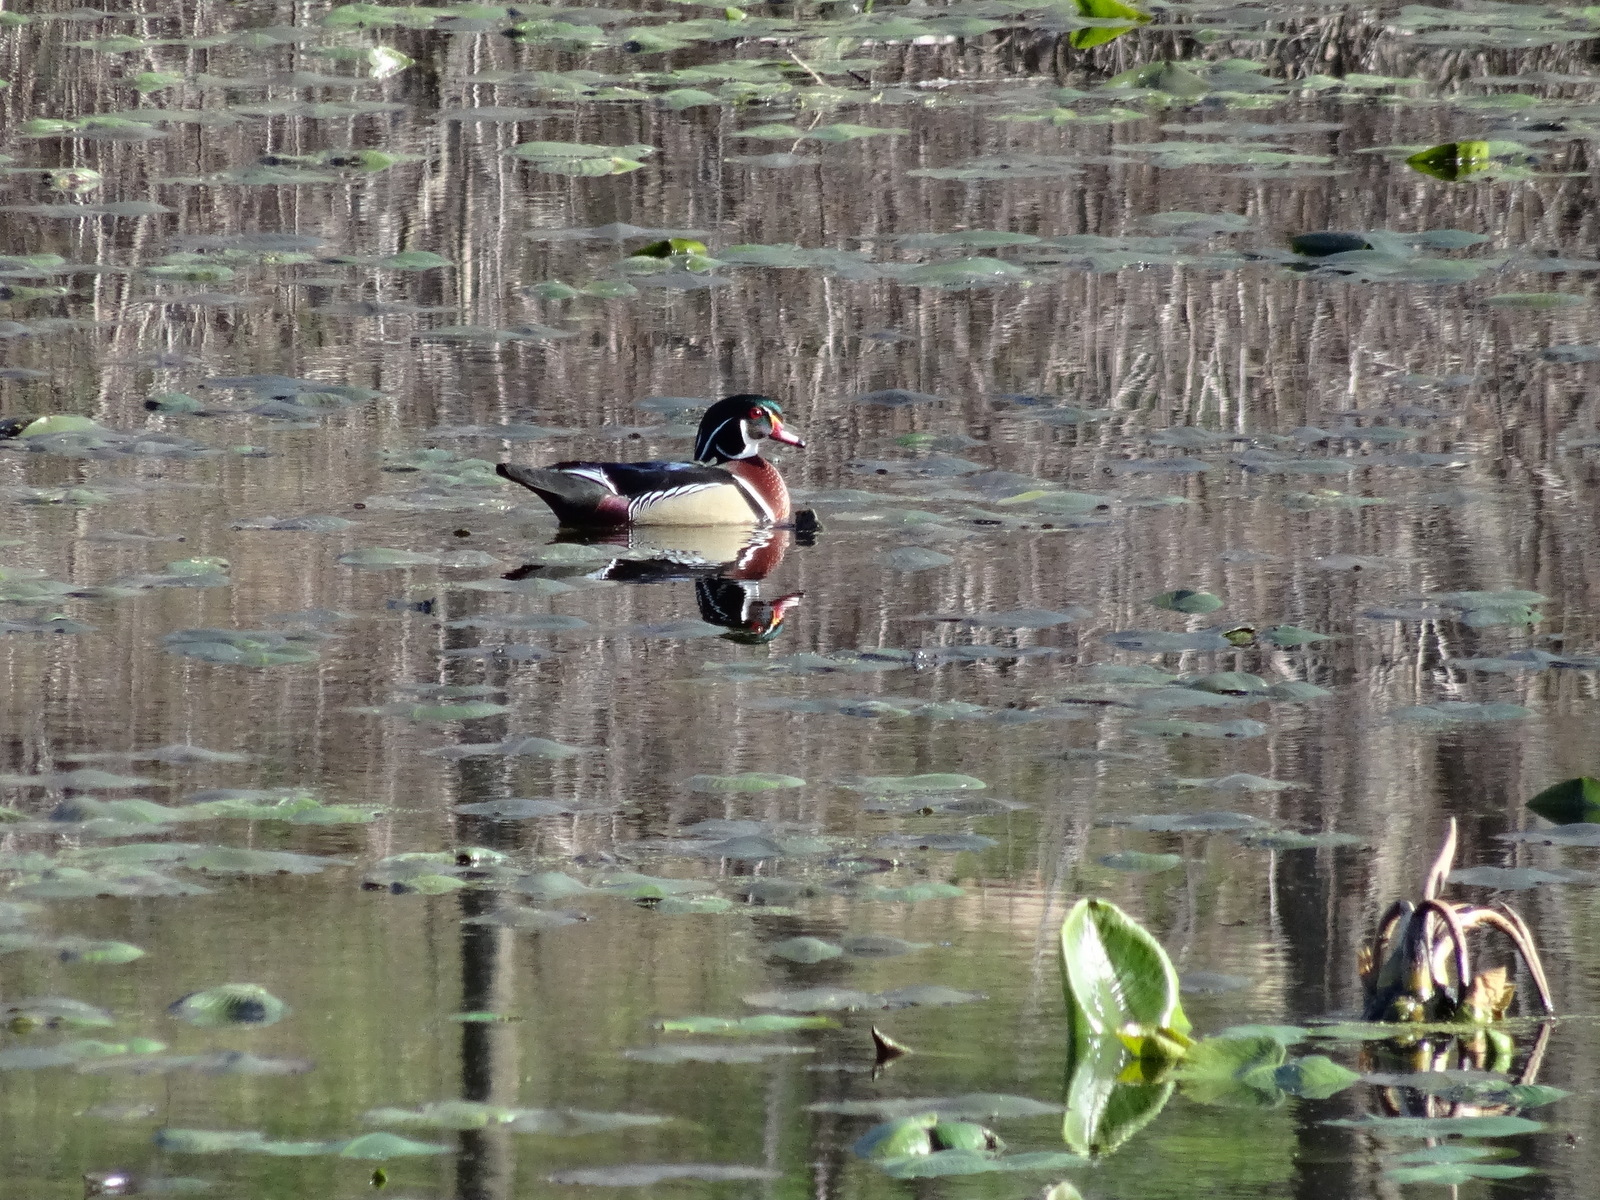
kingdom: Animalia
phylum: Chordata
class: Aves
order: Anseriformes
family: Anatidae
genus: Aix
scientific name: Aix sponsa
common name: Wood duck
